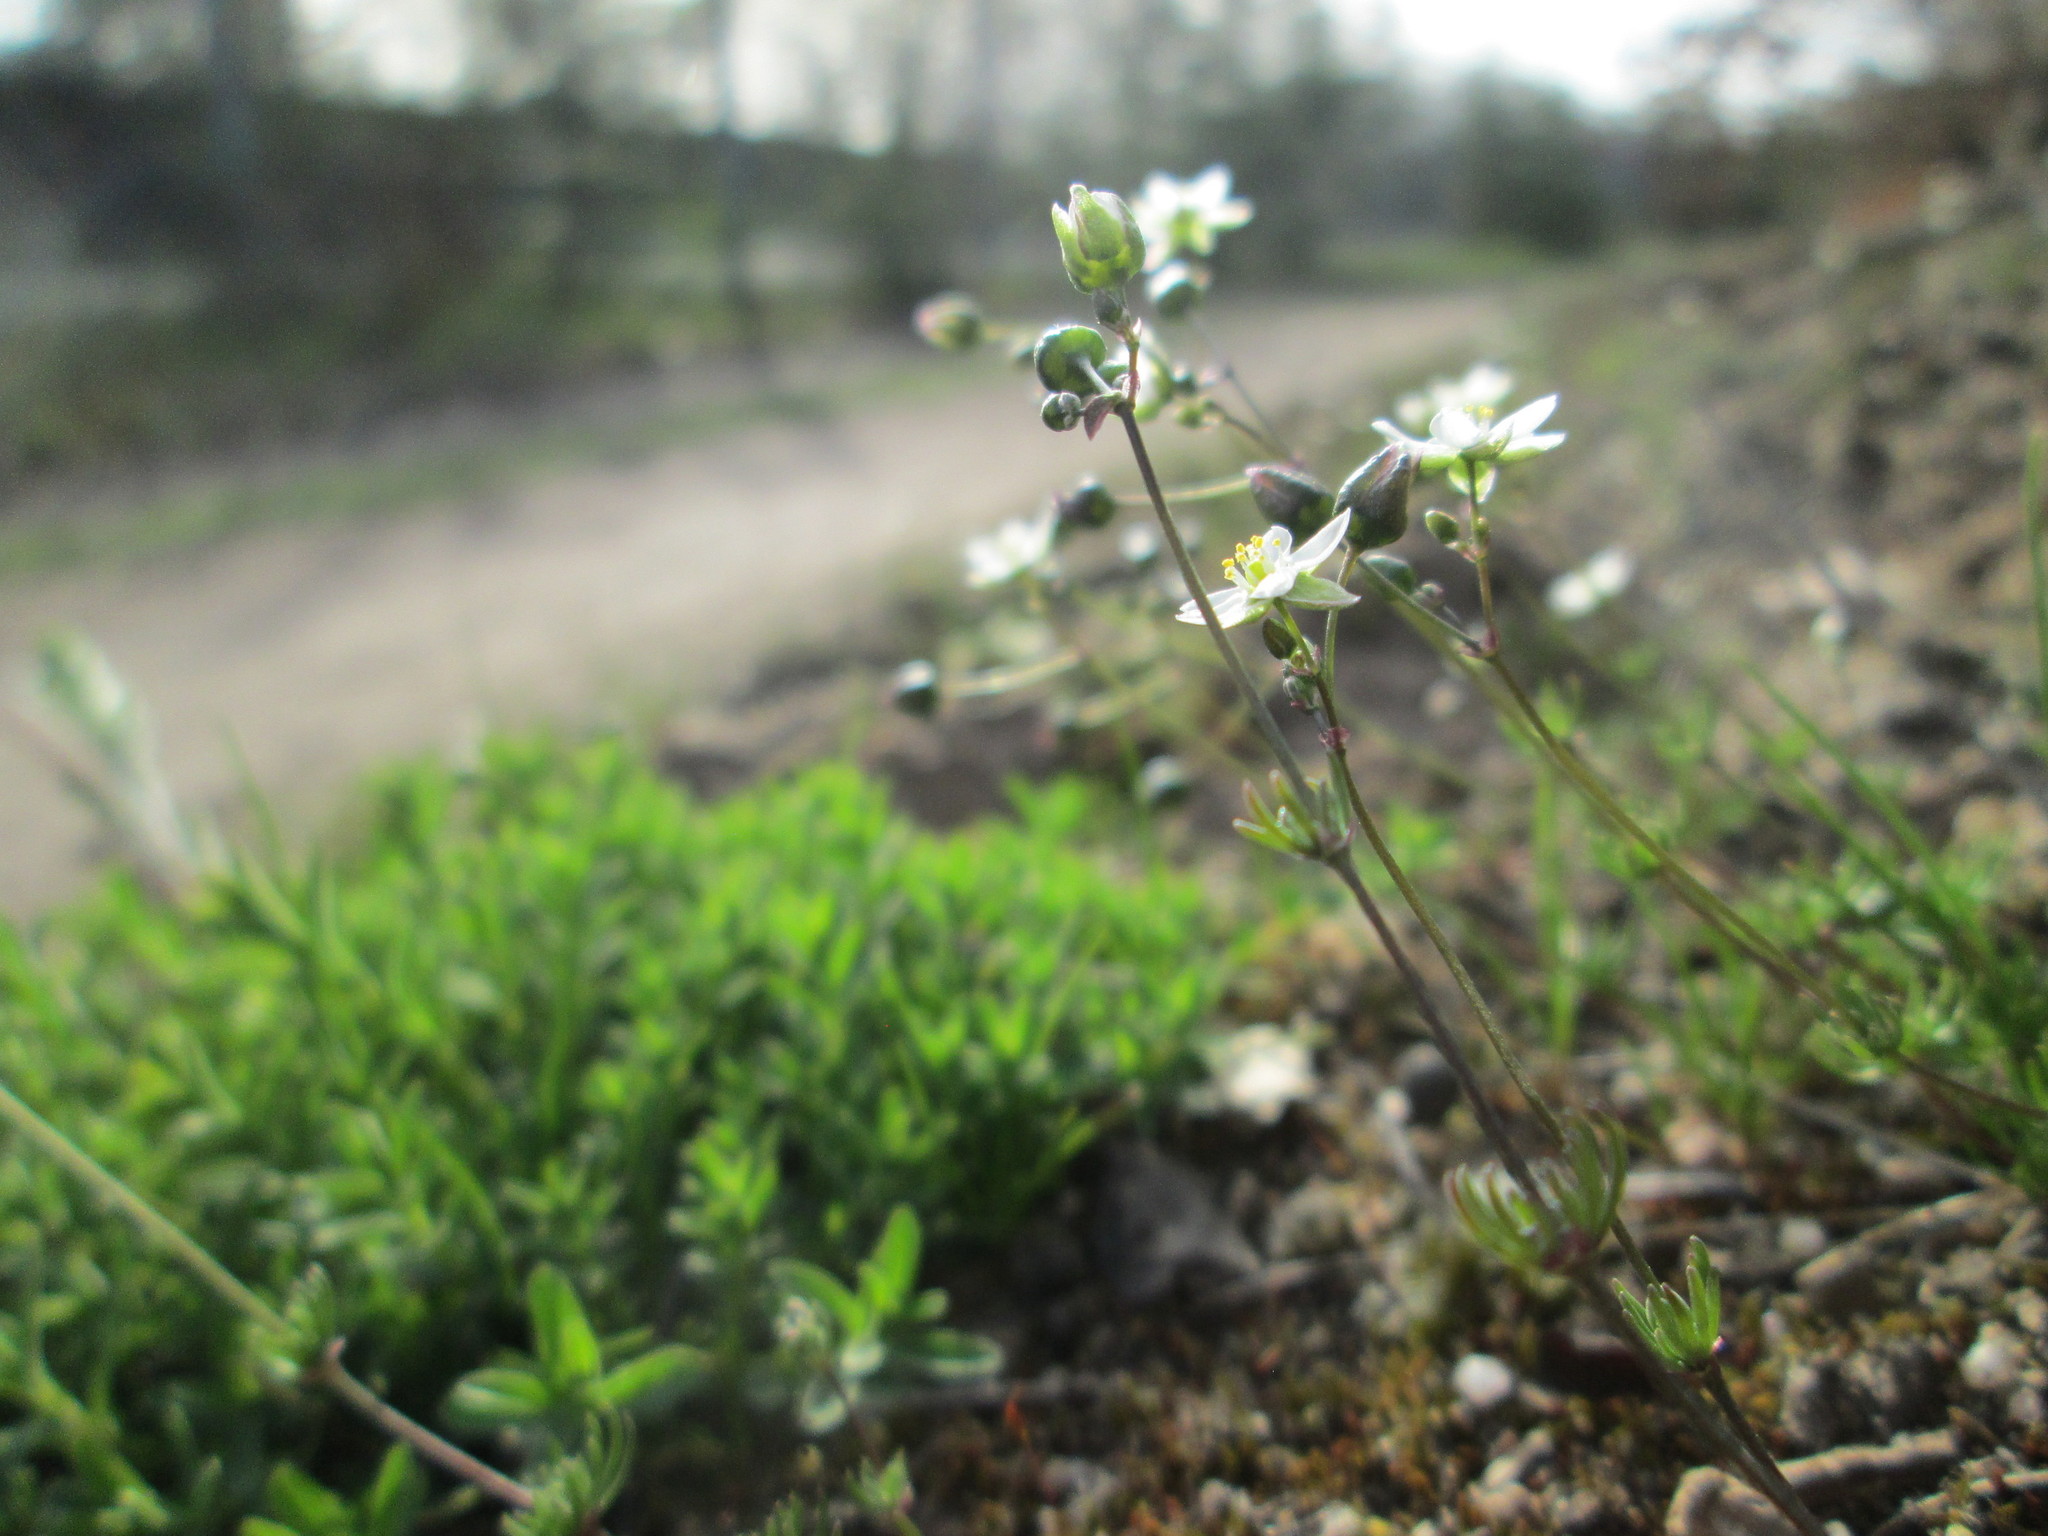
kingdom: Plantae
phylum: Tracheophyta
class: Magnoliopsida
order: Caryophyllales
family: Caryophyllaceae
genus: Spergula
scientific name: Spergula morisonii
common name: Pearlwort spurrey
